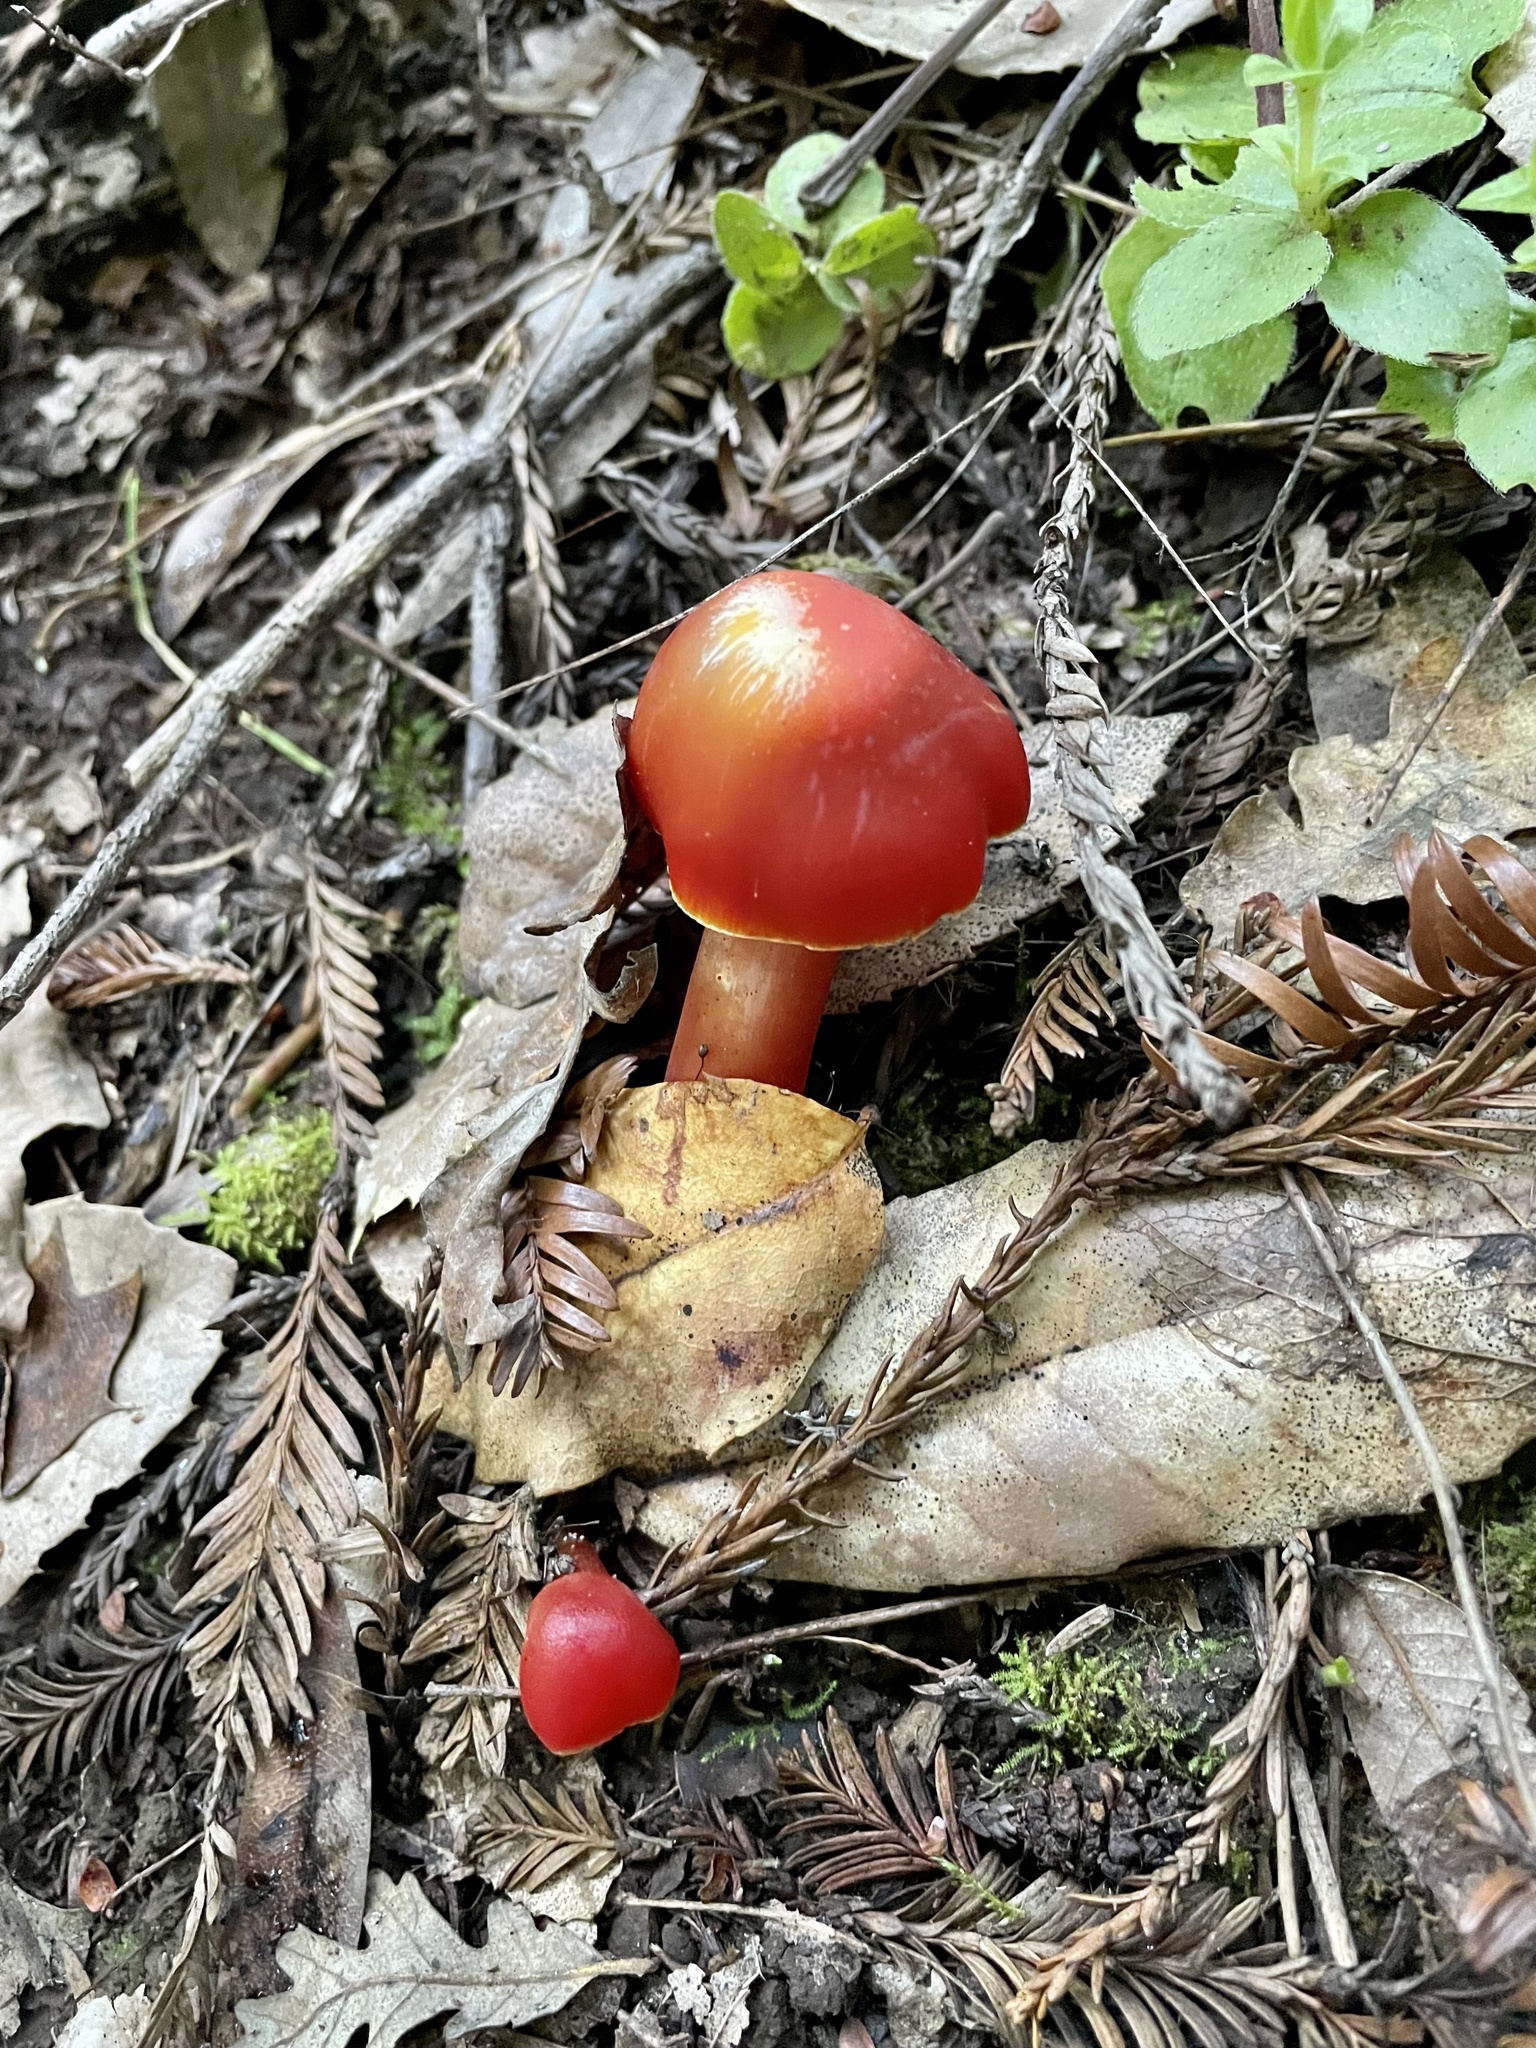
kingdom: Fungi
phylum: Basidiomycota
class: Agaricomycetes
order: Agaricales
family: Hygrophoraceae
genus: Hygrocybe
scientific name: Hygrocybe punicea
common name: Crimson waxcap
